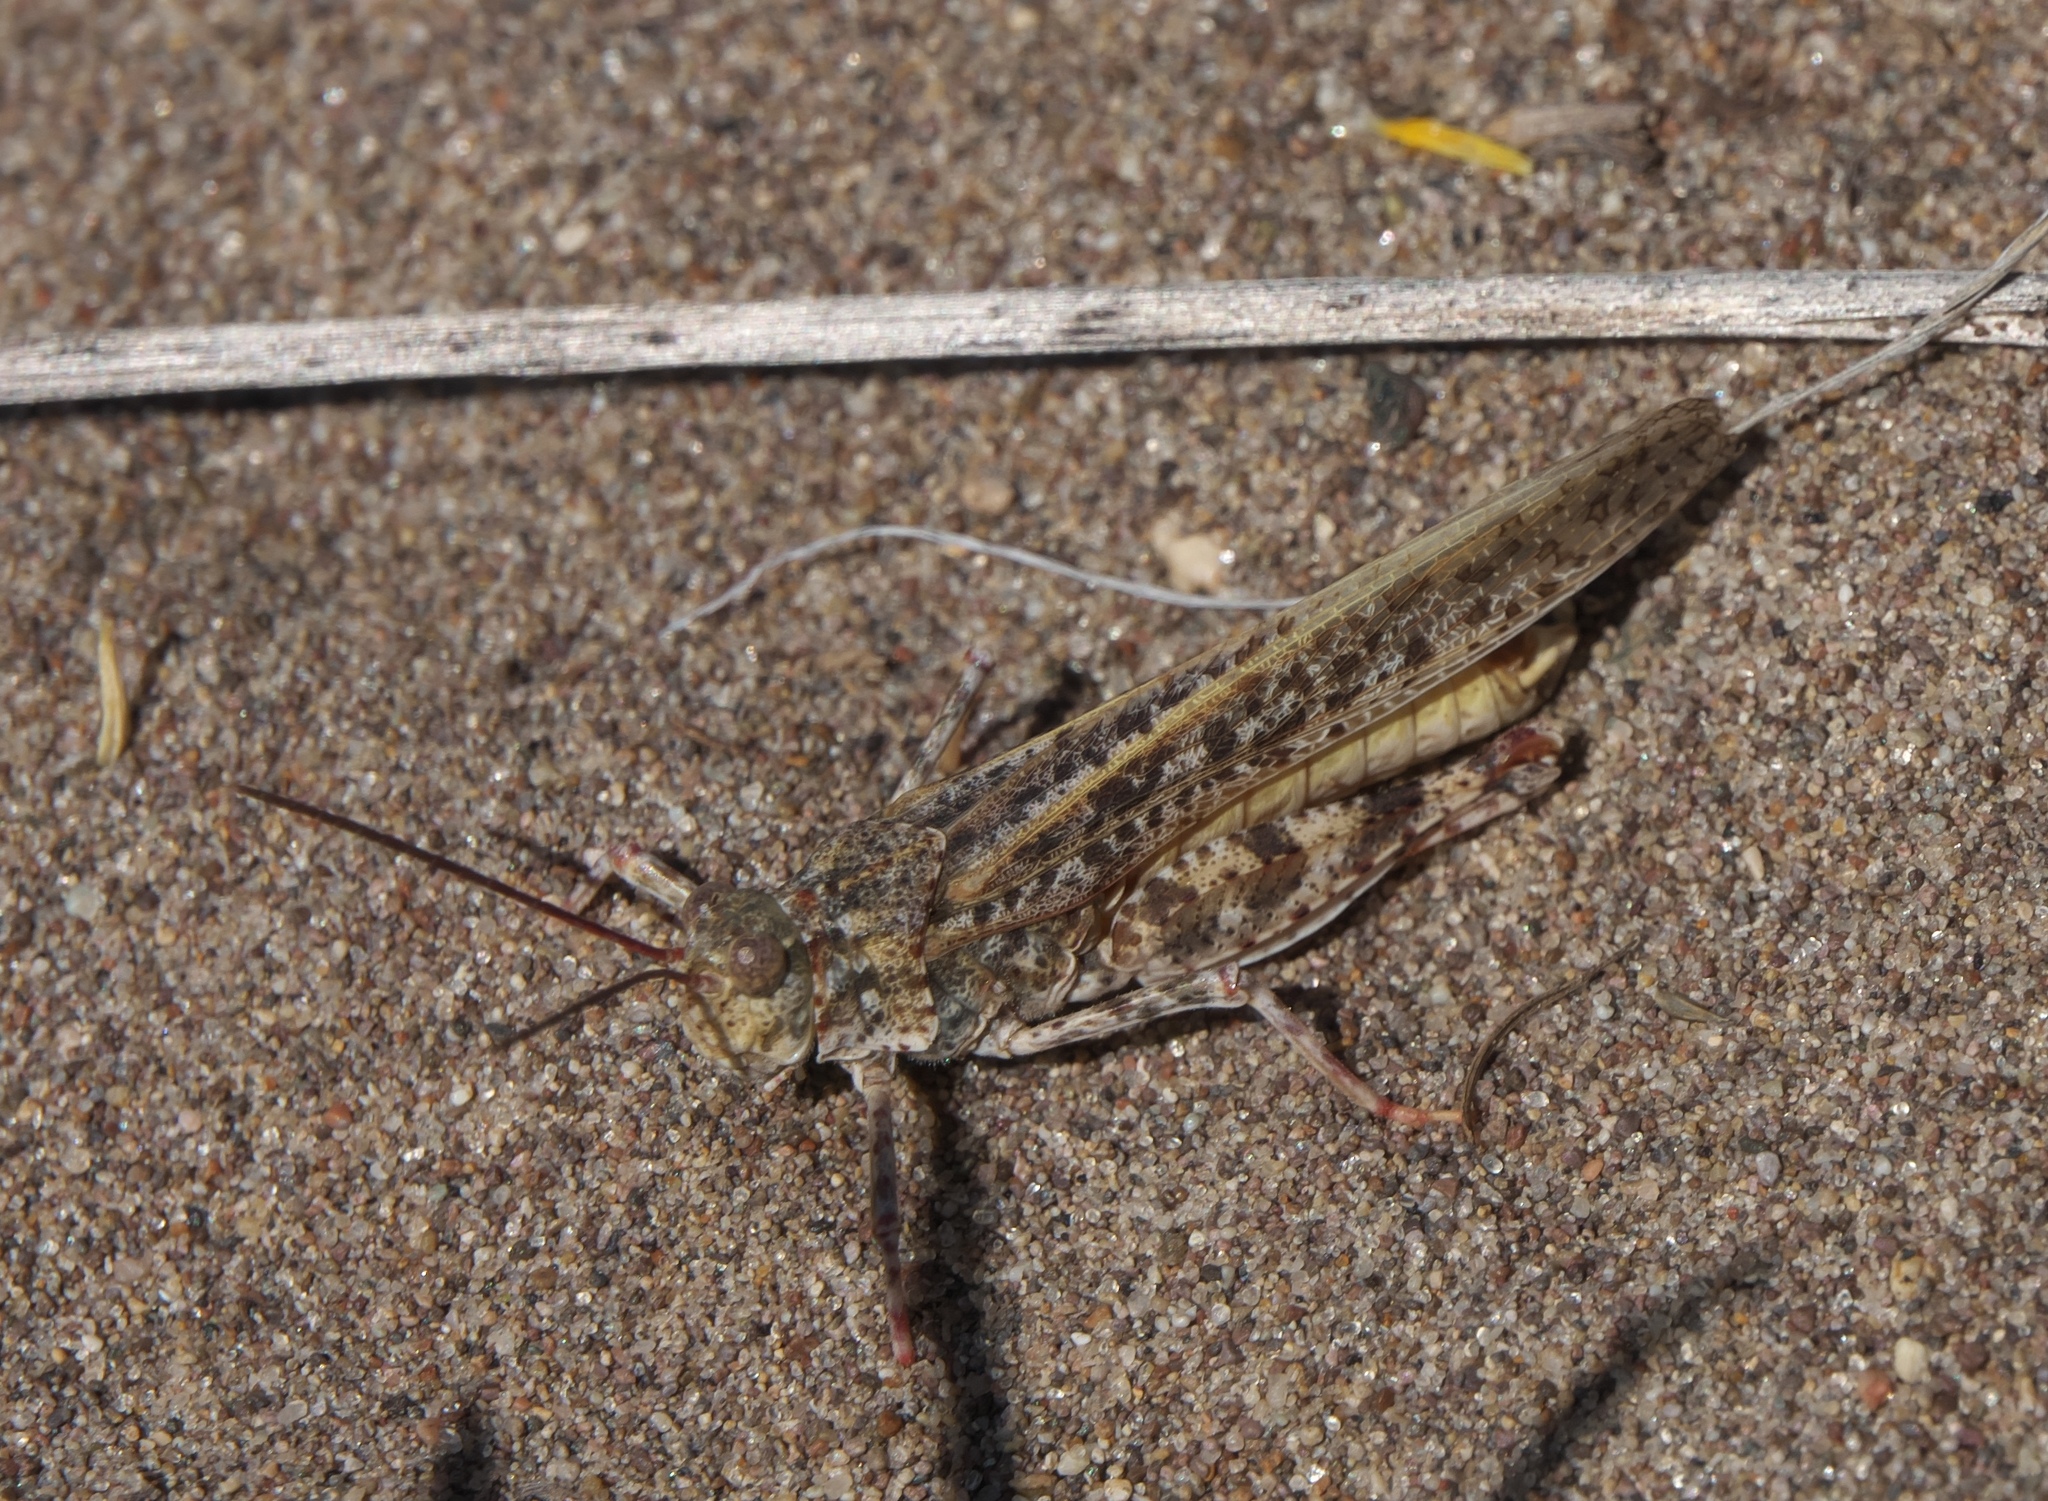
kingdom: Animalia
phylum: Arthropoda
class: Insecta
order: Orthoptera
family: Acrididae
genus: Trimerotropis
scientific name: Trimerotropis agrestis
